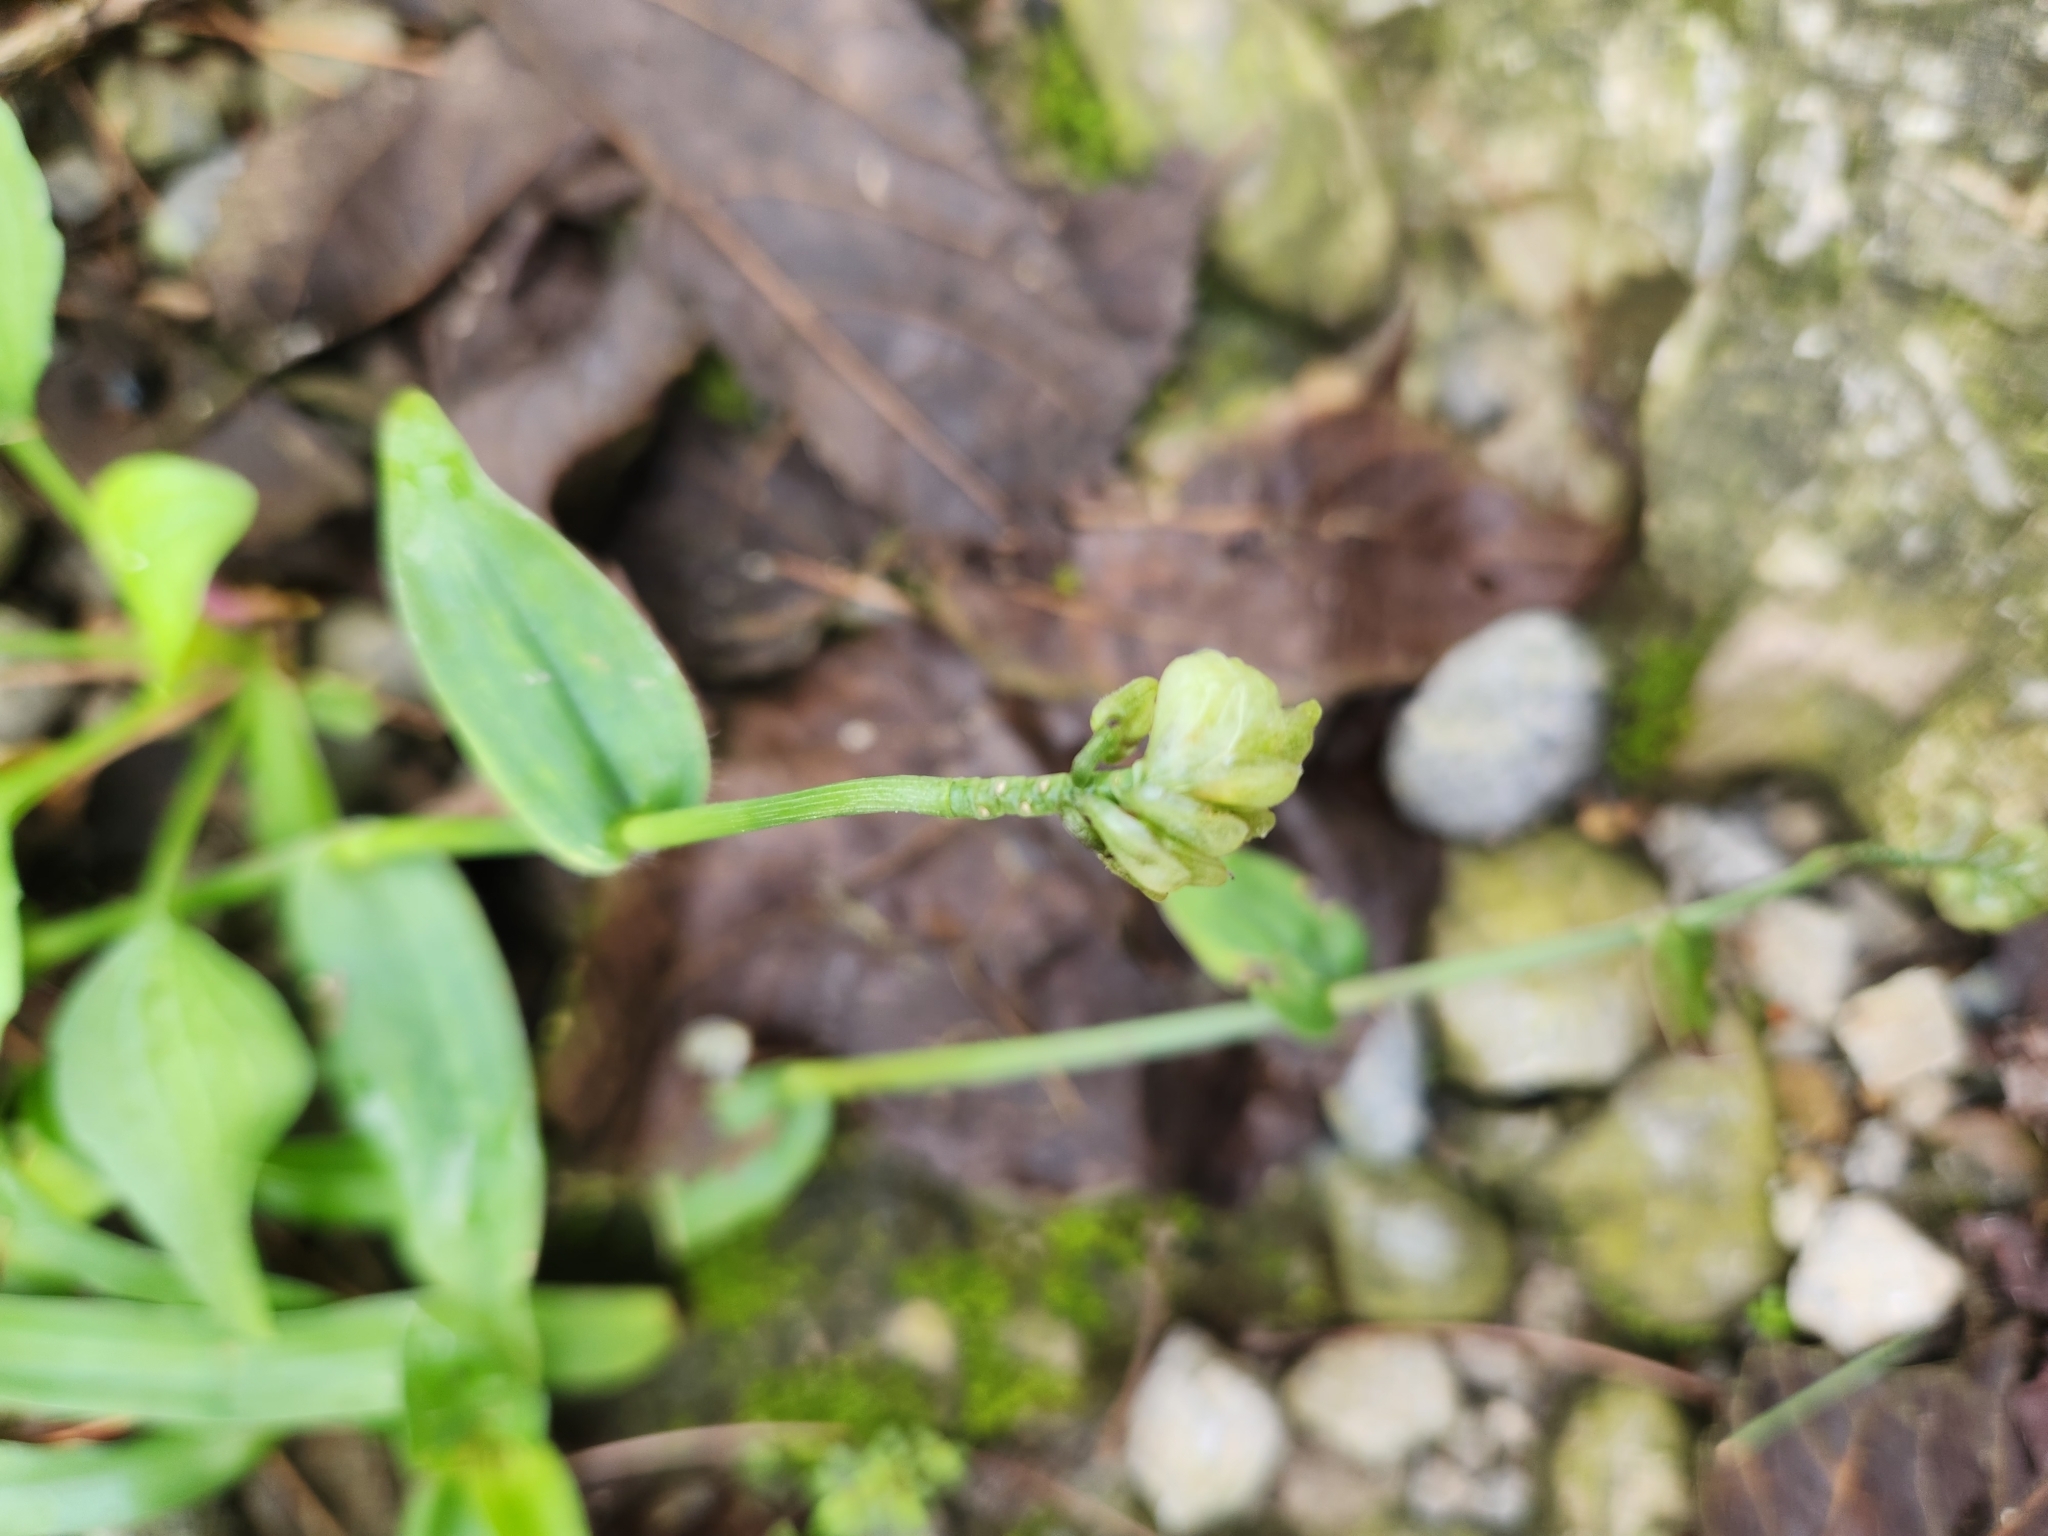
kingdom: Plantae
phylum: Tracheophyta
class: Liliopsida
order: Commelinales
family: Commelinaceae
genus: Murdannia
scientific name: Murdannia bracteata
